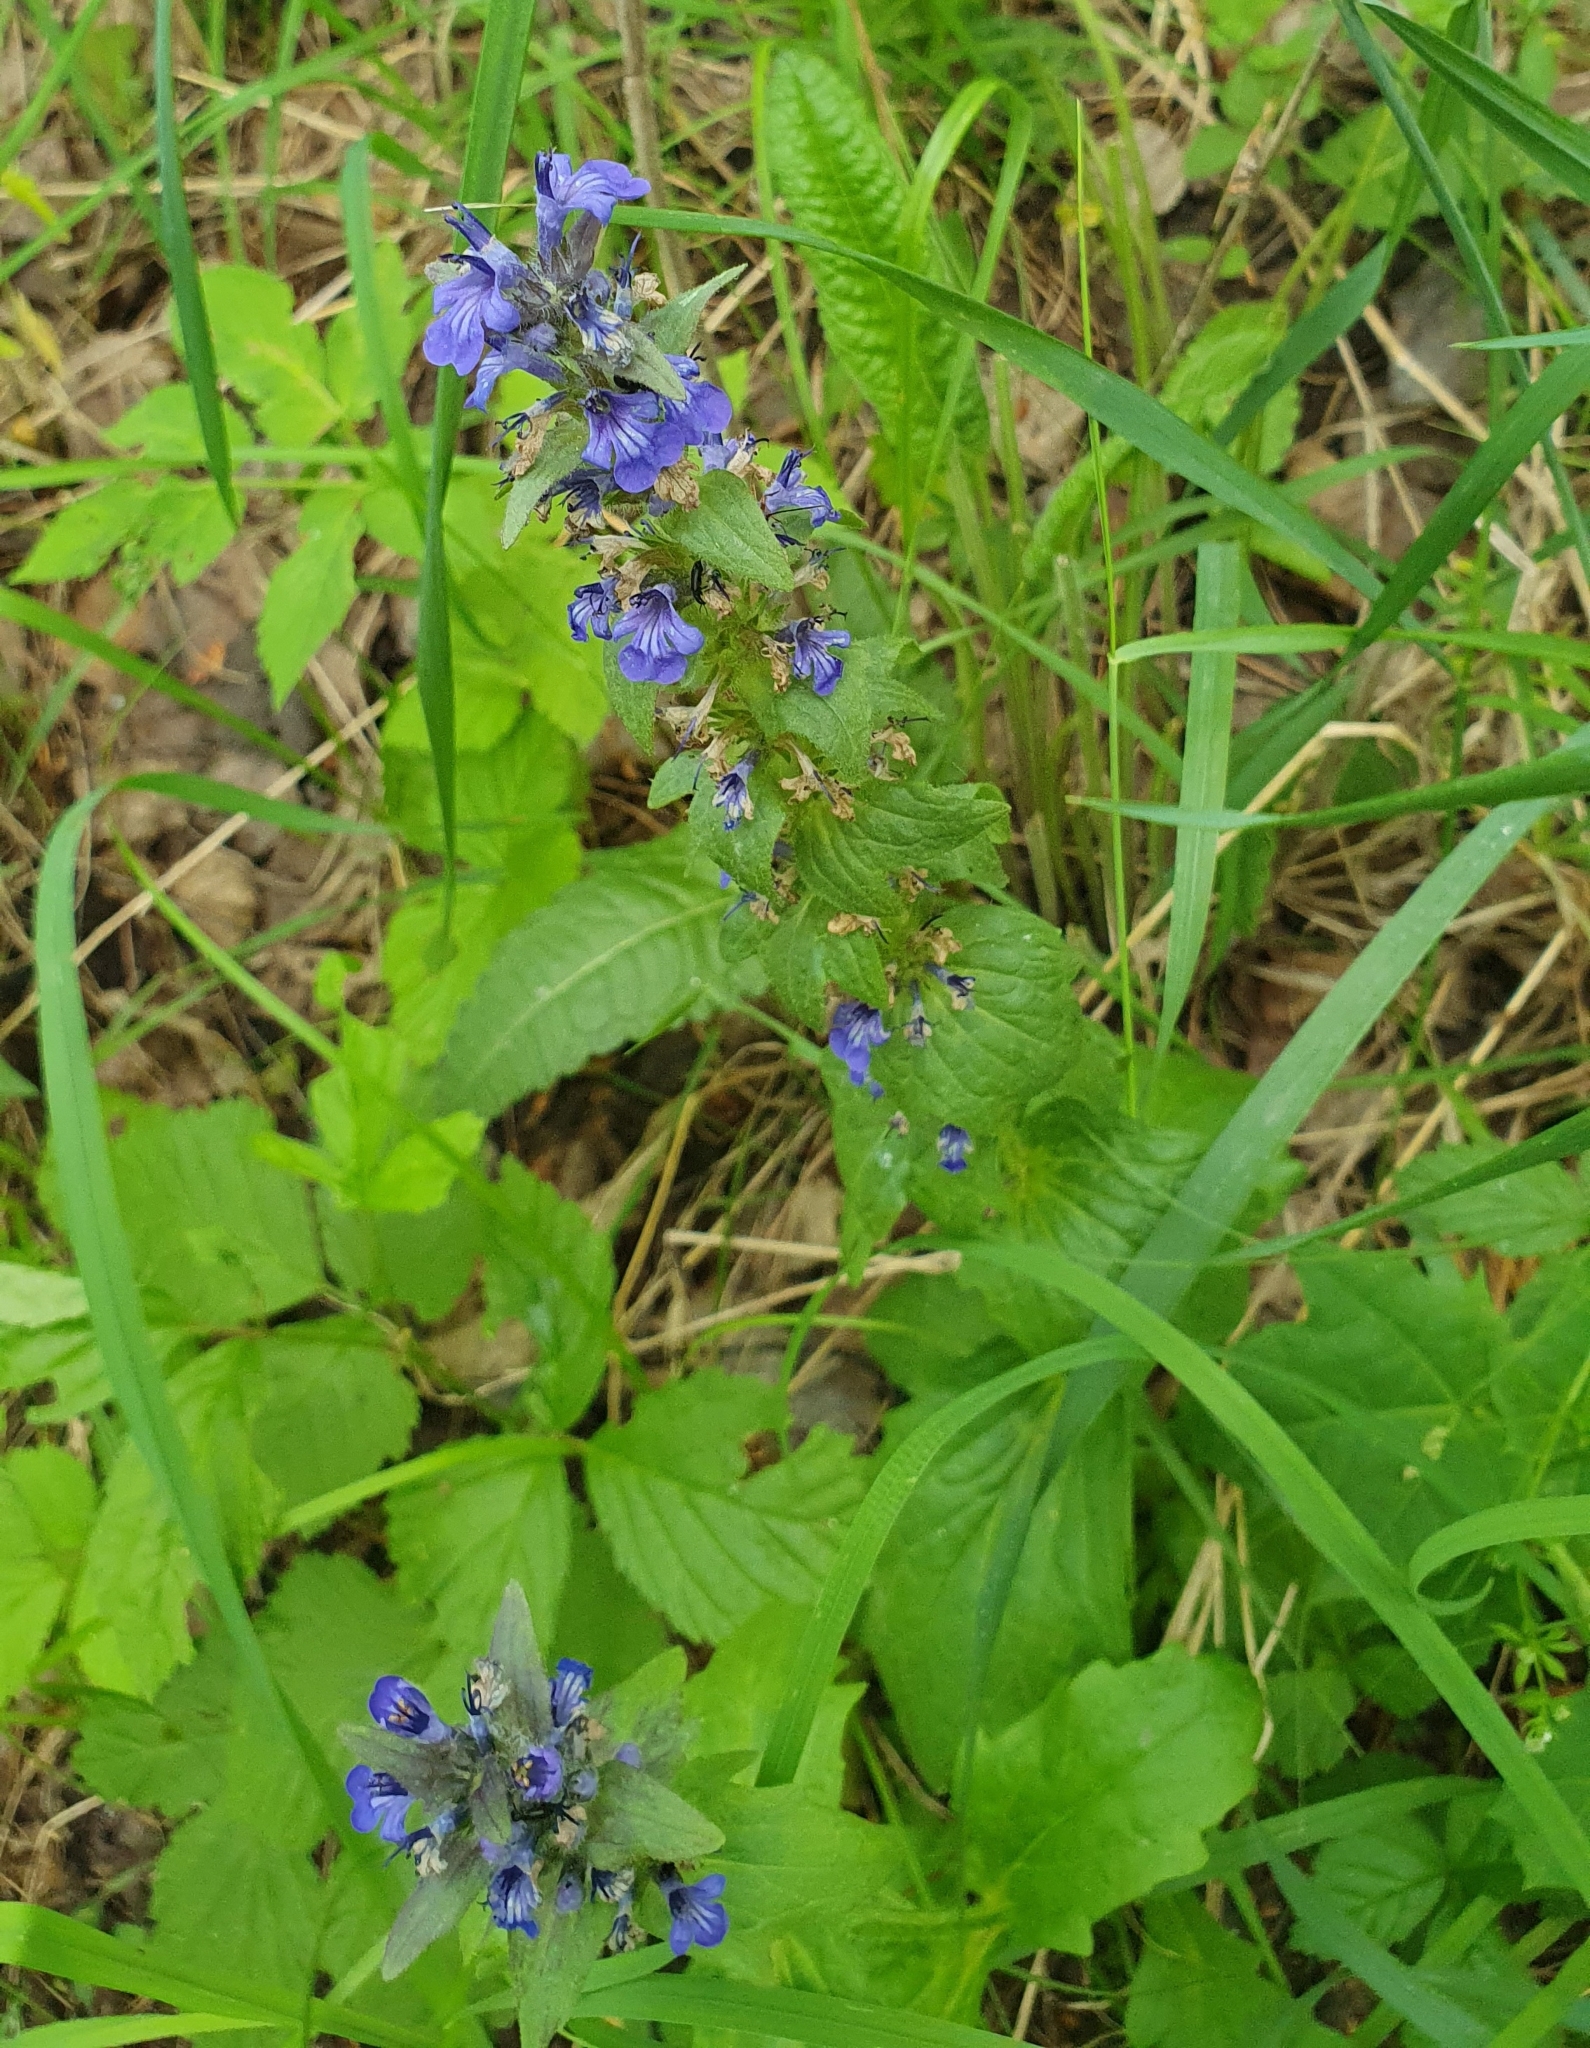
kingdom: Plantae
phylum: Tracheophyta
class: Magnoliopsida
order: Lamiales
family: Lamiaceae
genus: Ajuga
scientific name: Ajuga genevensis
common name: Blue bugle
